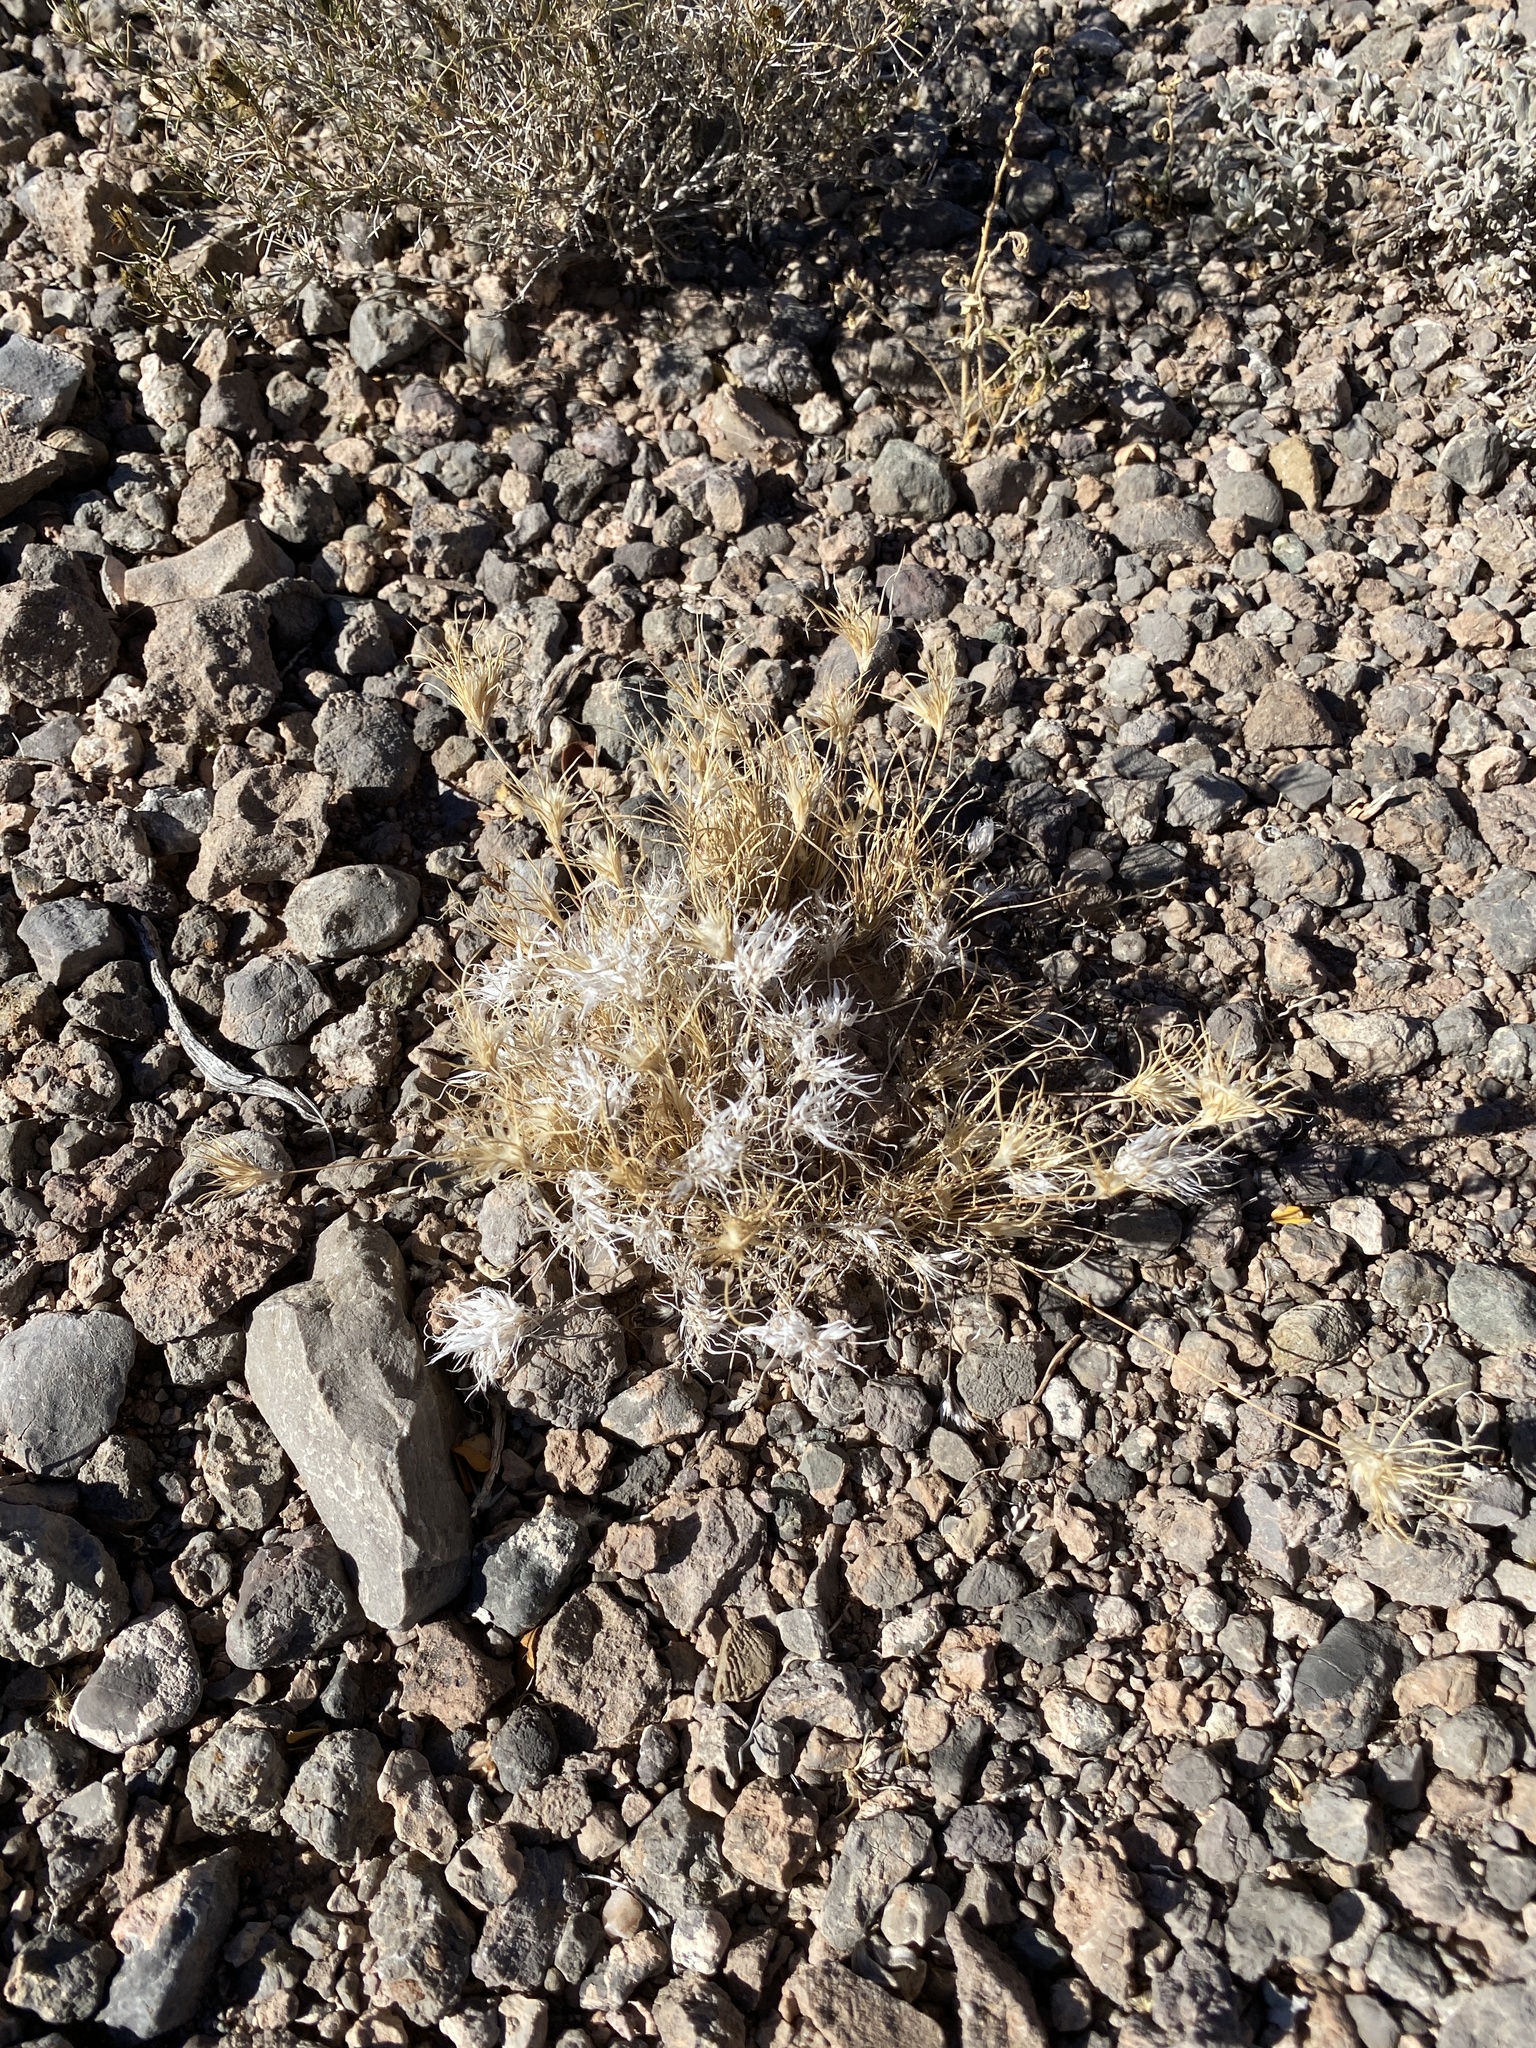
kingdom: Plantae
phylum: Tracheophyta
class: Liliopsida
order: Poales
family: Poaceae
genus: Dasyochloa
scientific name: Dasyochloa pulchella
